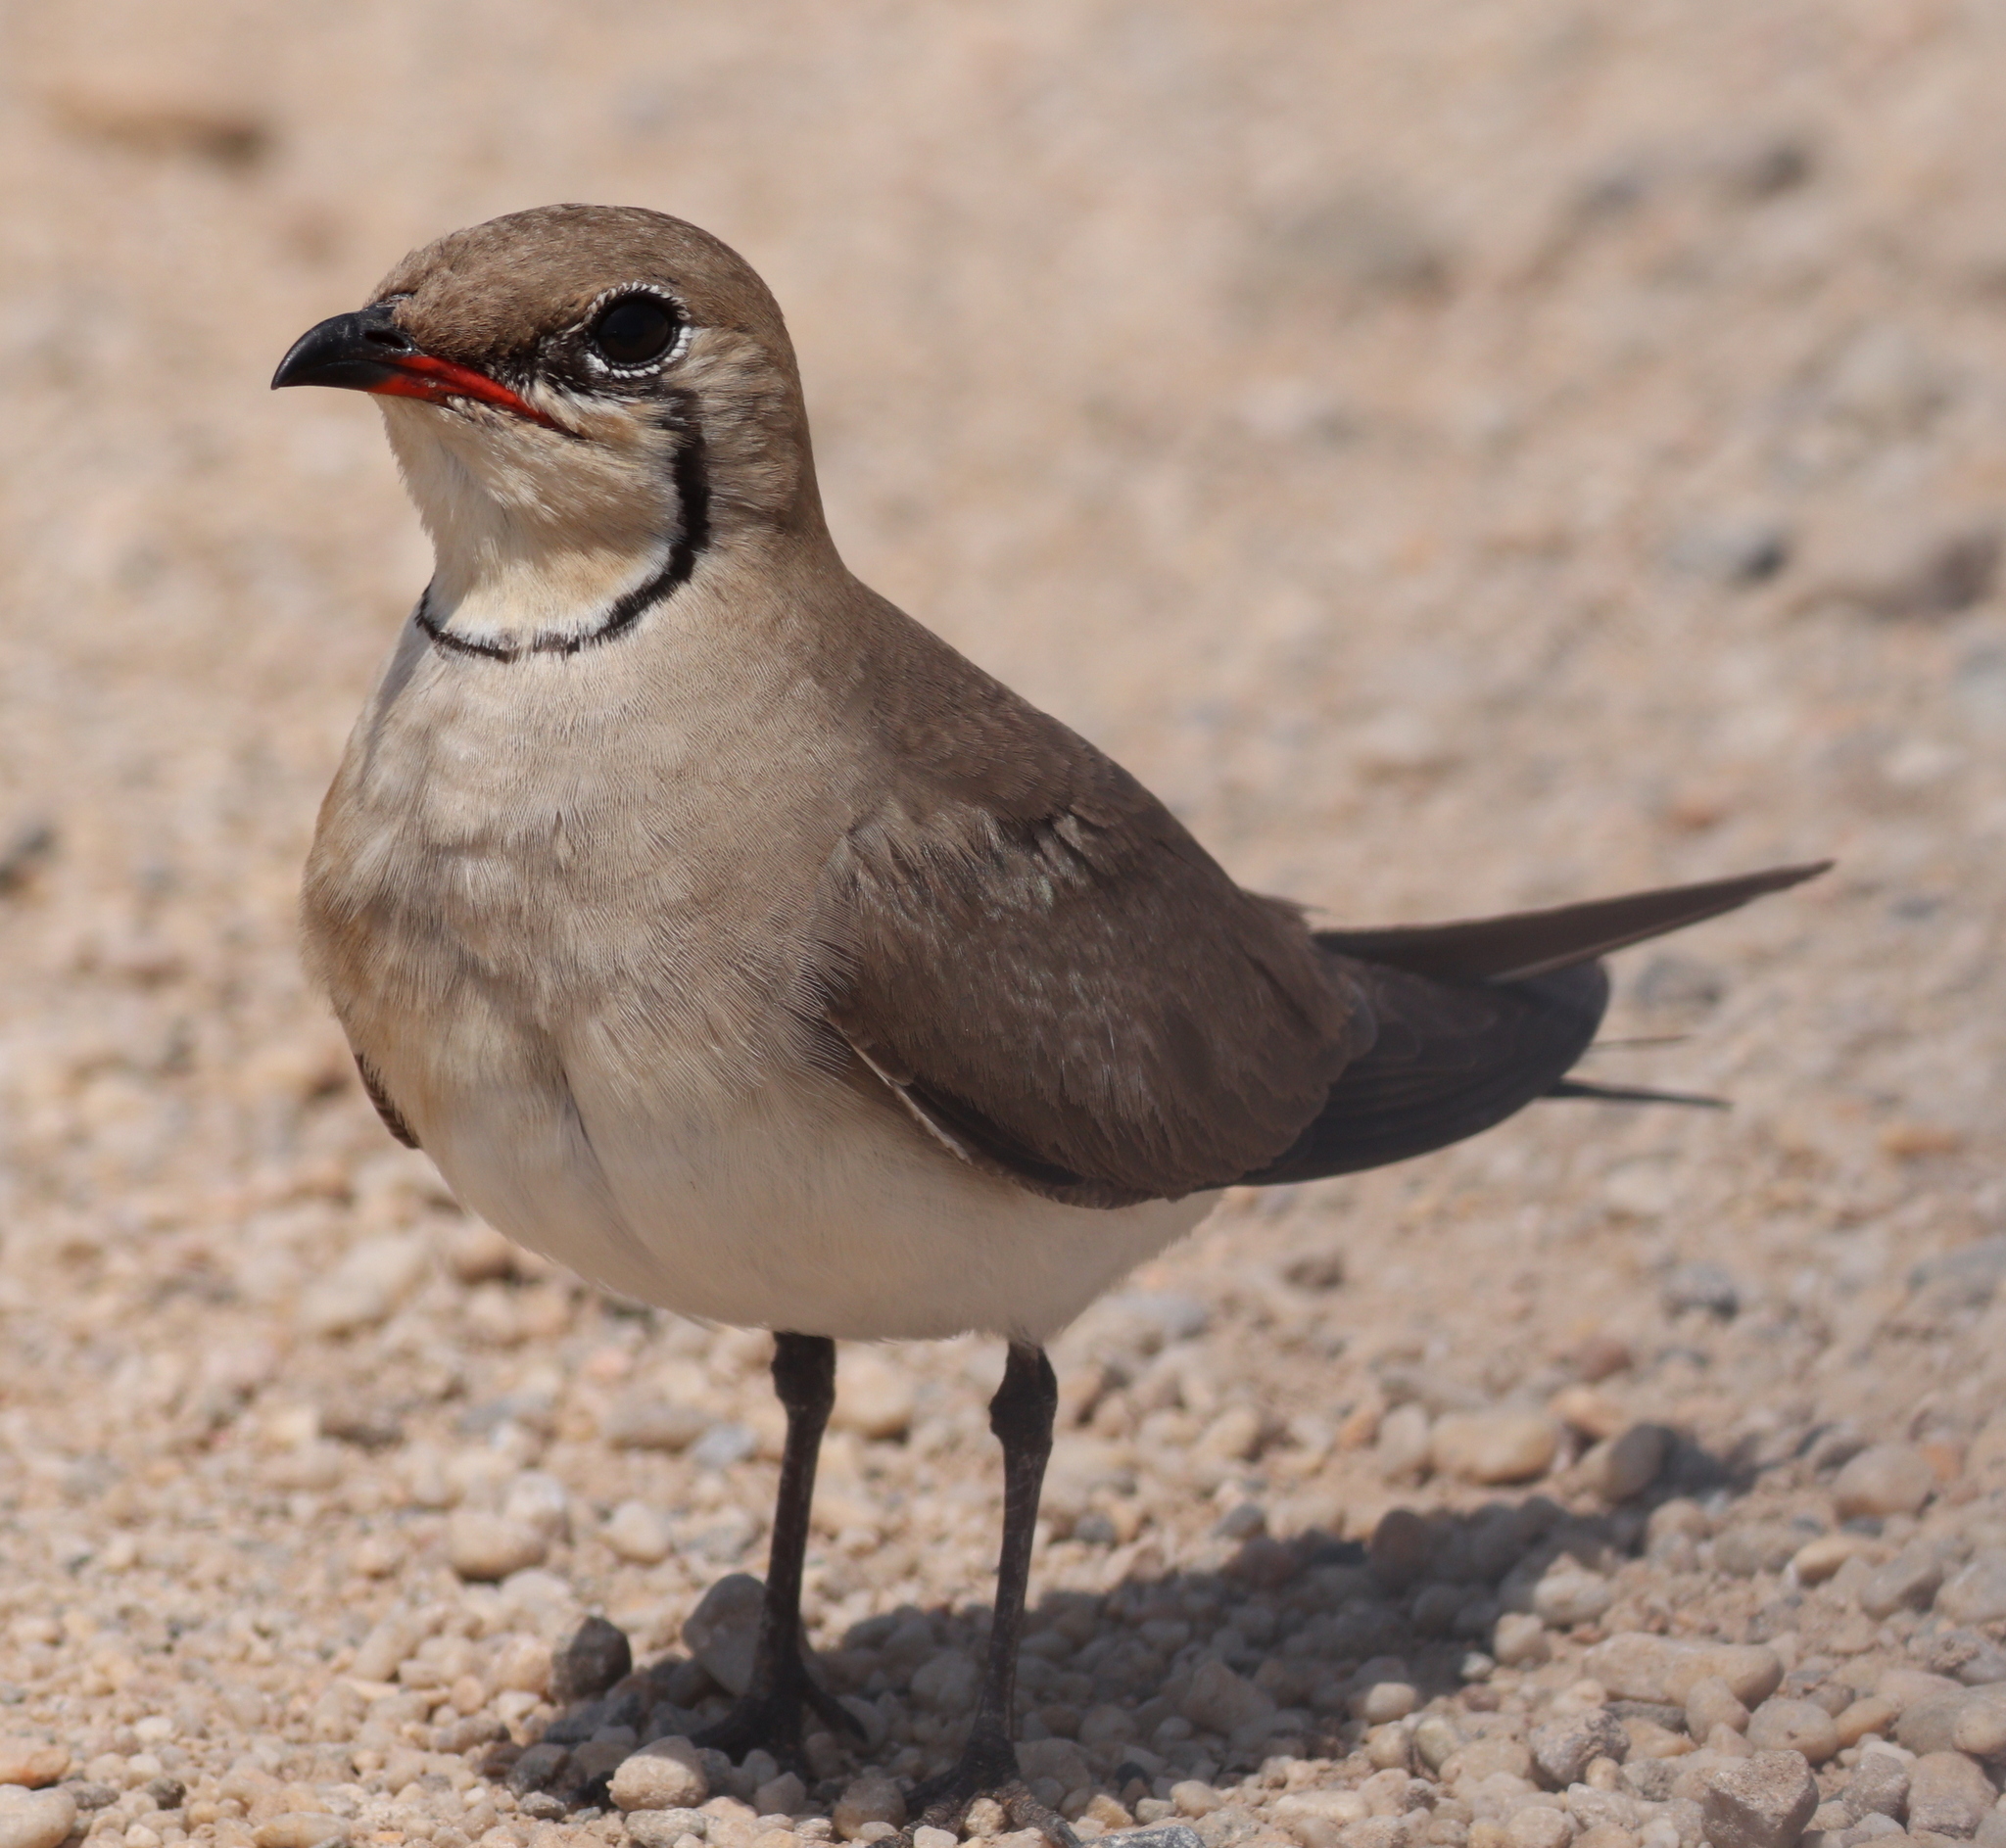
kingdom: Animalia
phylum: Chordata
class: Aves
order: Charadriiformes
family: Glareolidae
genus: Glareola
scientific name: Glareola pratincola
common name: Collared pratincole
